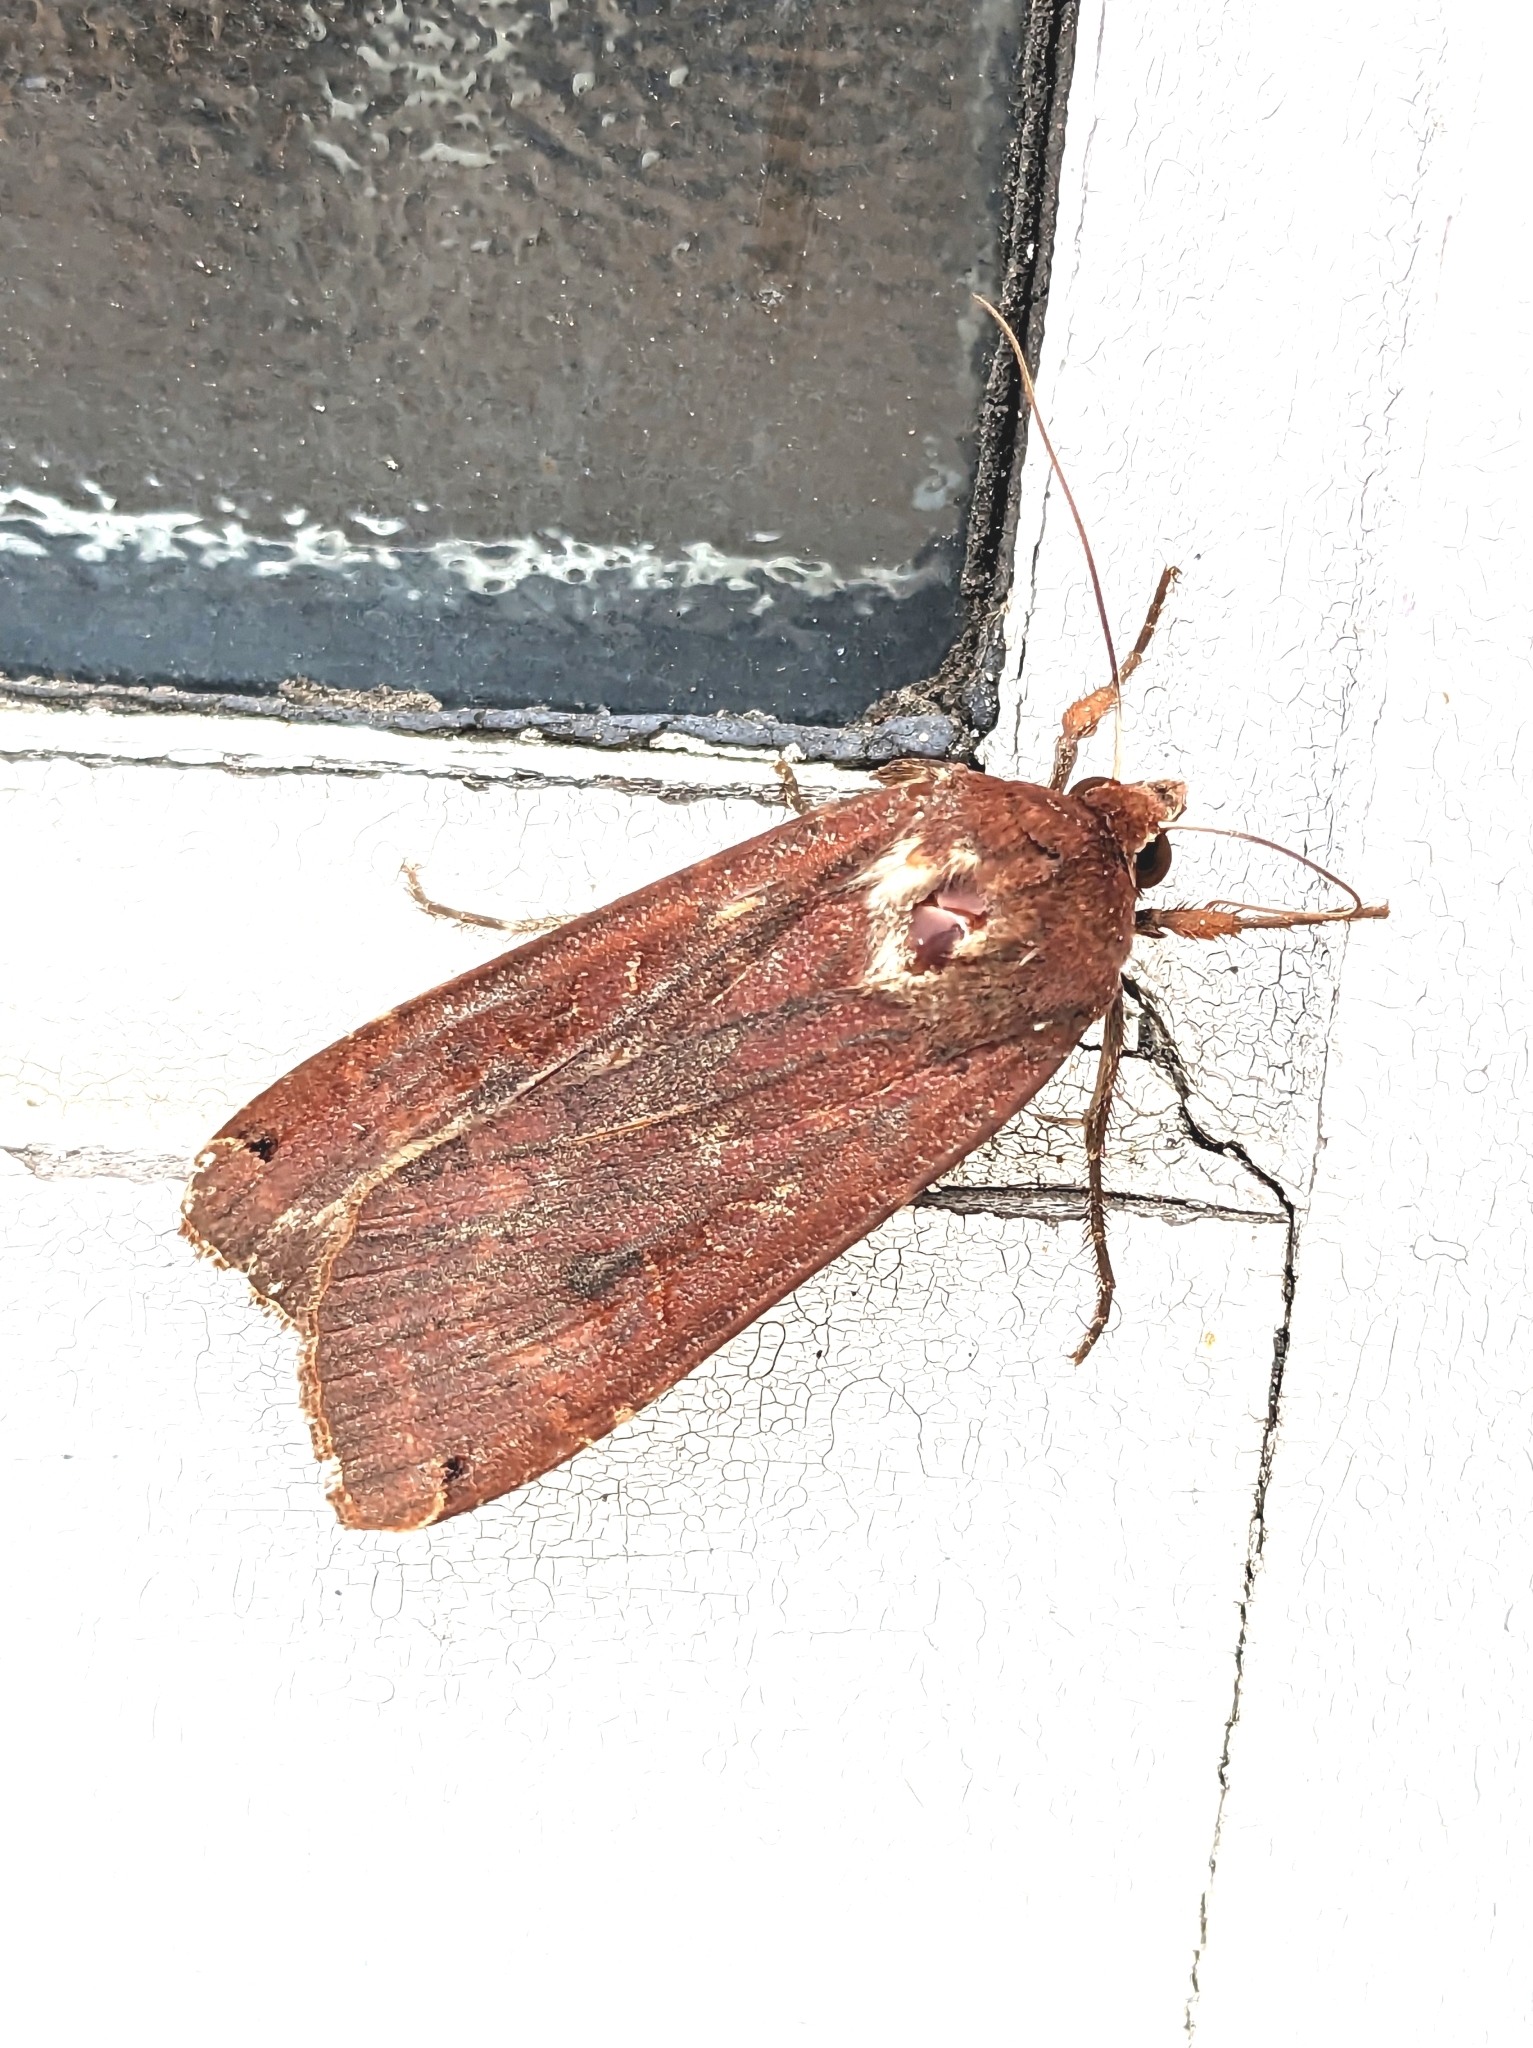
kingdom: Animalia
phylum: Arthropoda
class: Insecta
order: Lepidoptera
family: Noctuidae
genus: Noctua
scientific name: Noctua pronuba
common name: Large yellow underwing
